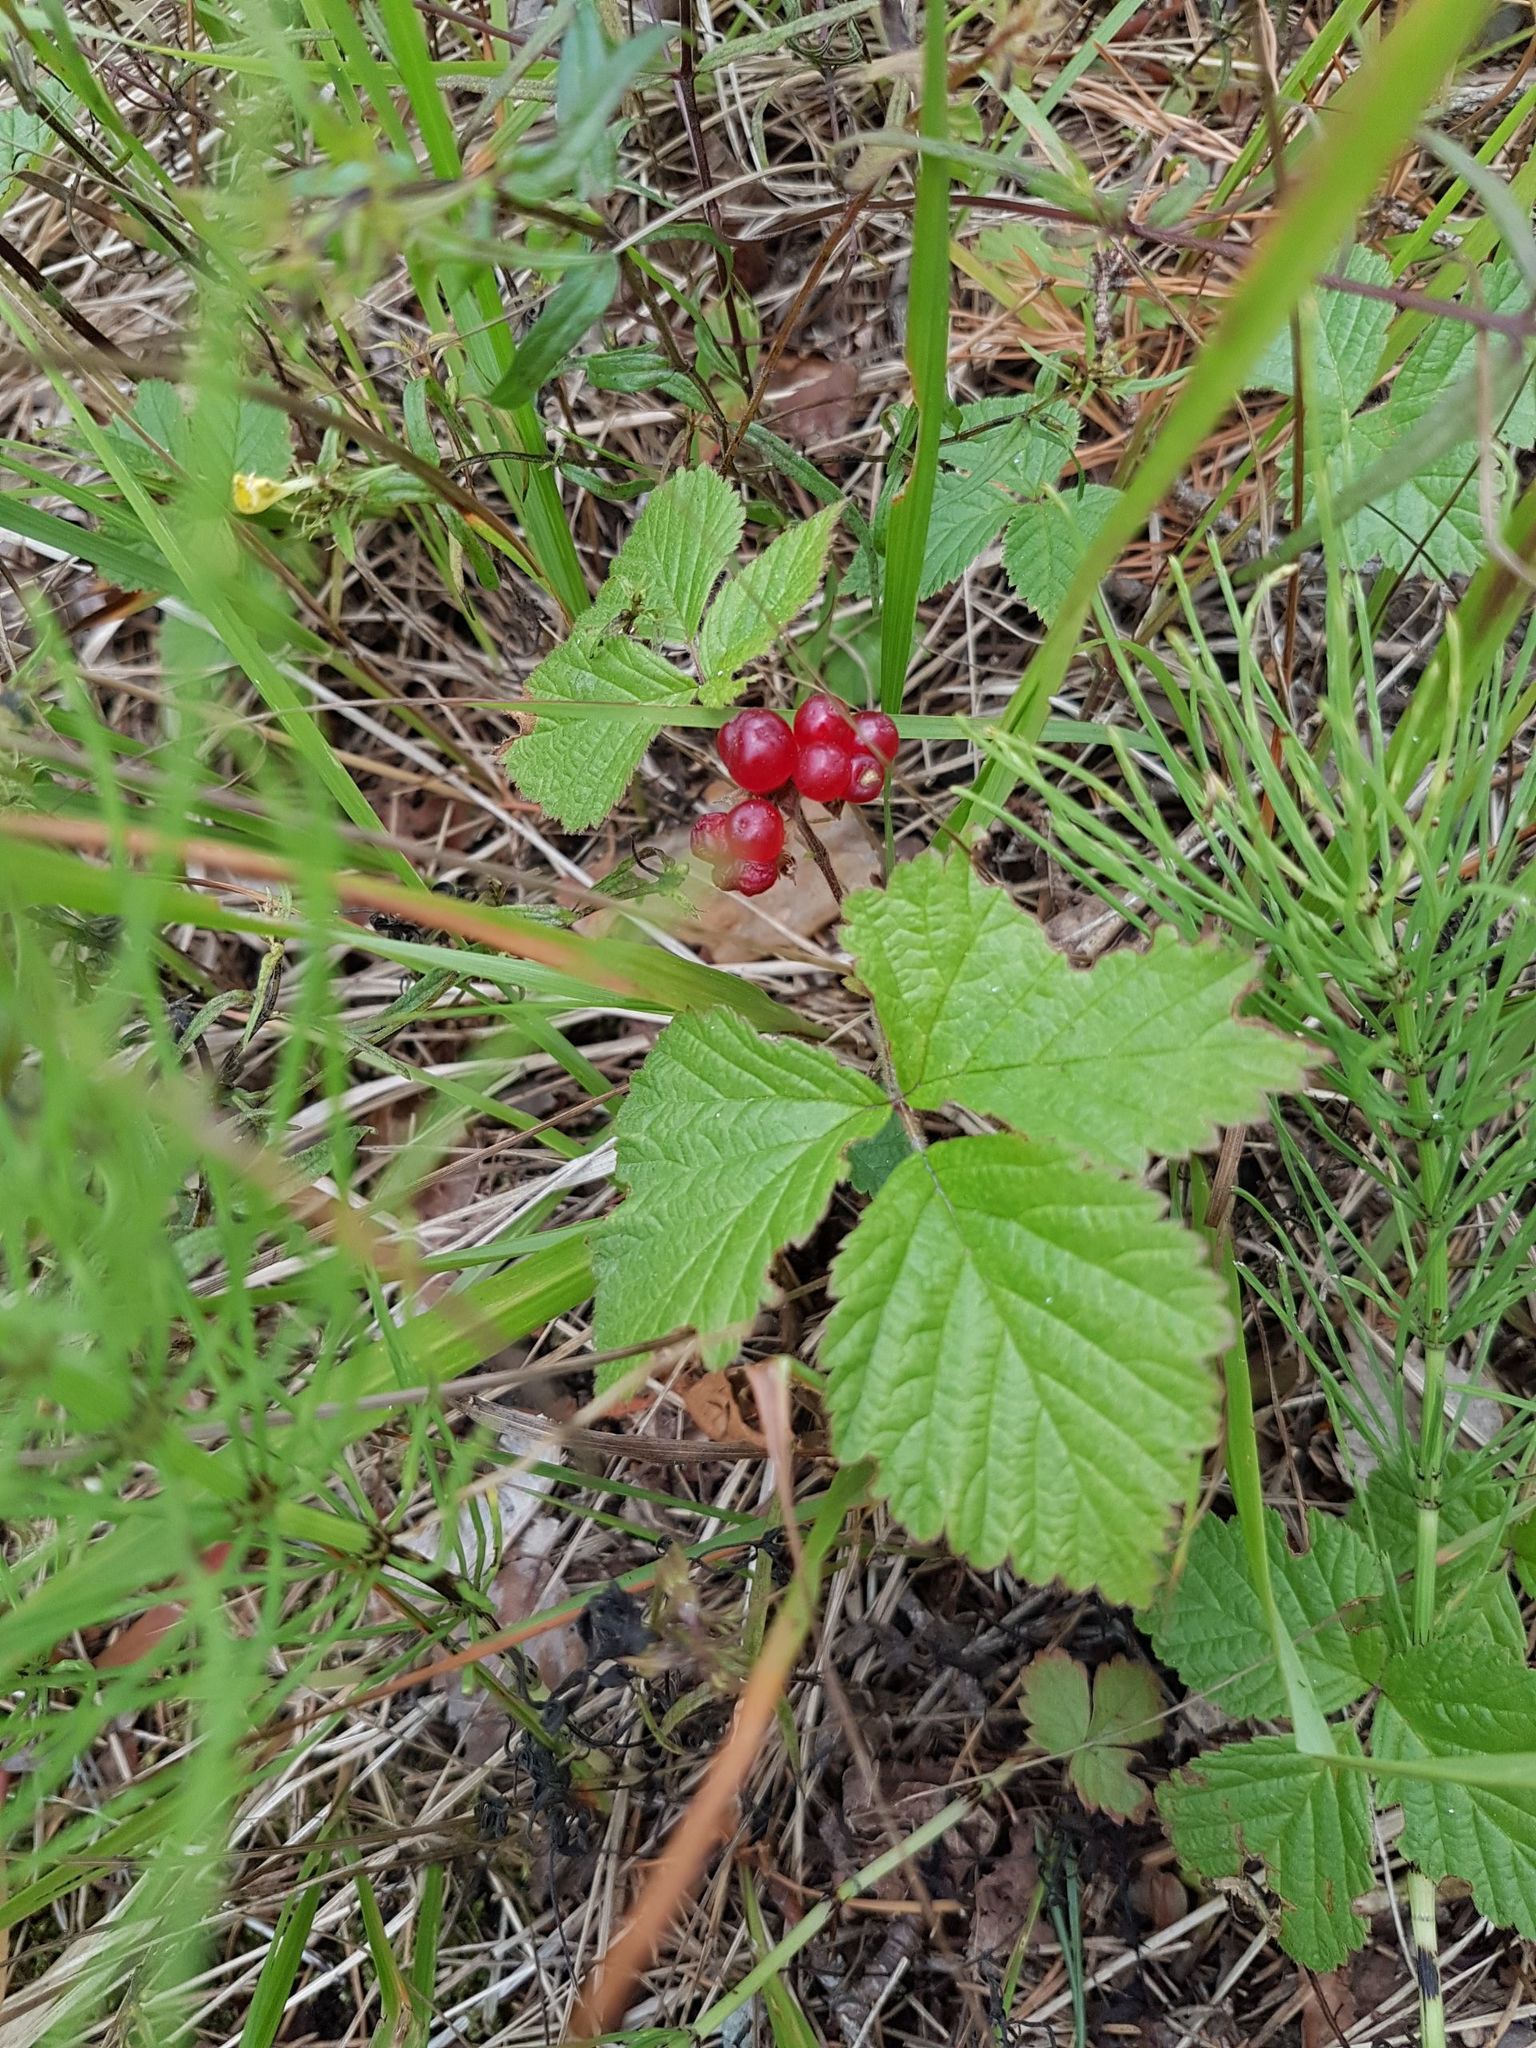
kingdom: Plantae
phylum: Tracheophyta
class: Magnoliopsida
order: Rosales
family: Rosaceae
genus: Rubus
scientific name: Rubus saxatilis
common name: Stone bramble
